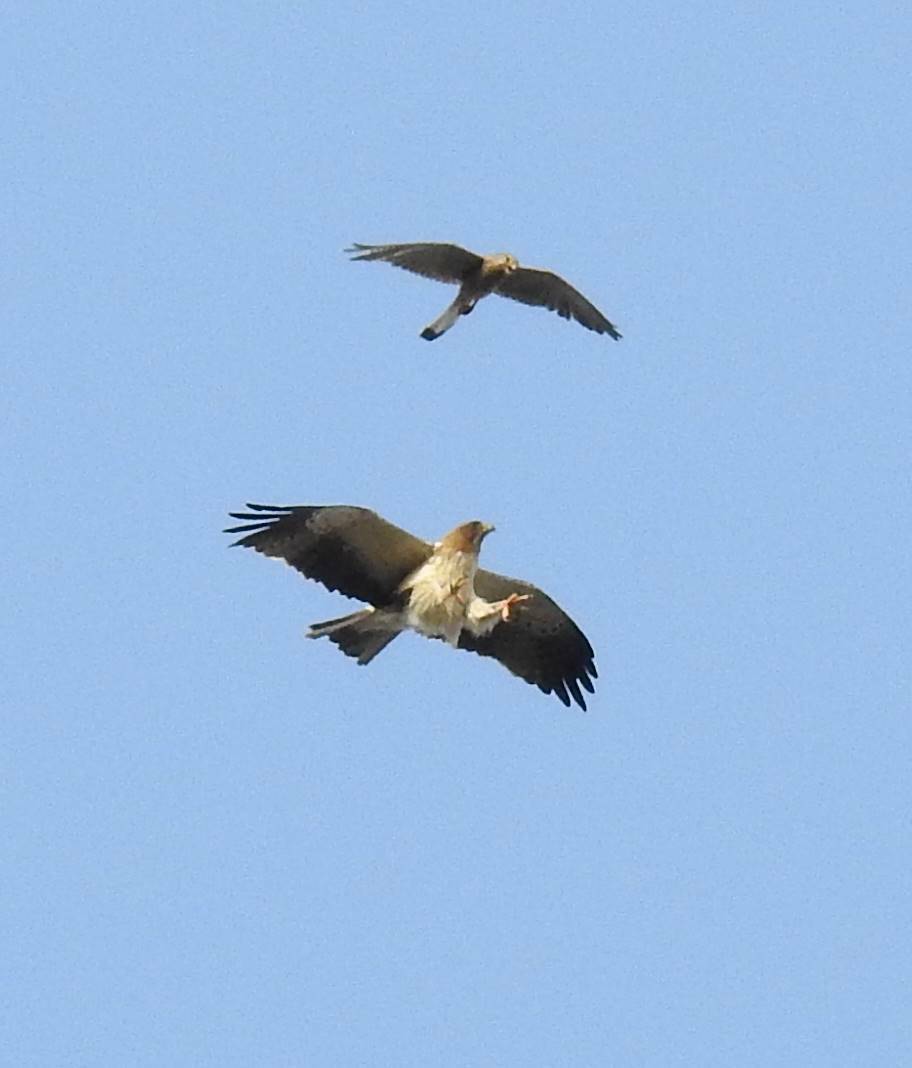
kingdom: Animalia
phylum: Chordata
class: Aves
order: Accipitriformes
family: Accipitridae
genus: Hieraaetus
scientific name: Hieraaetus pennatus
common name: Booted eagle
